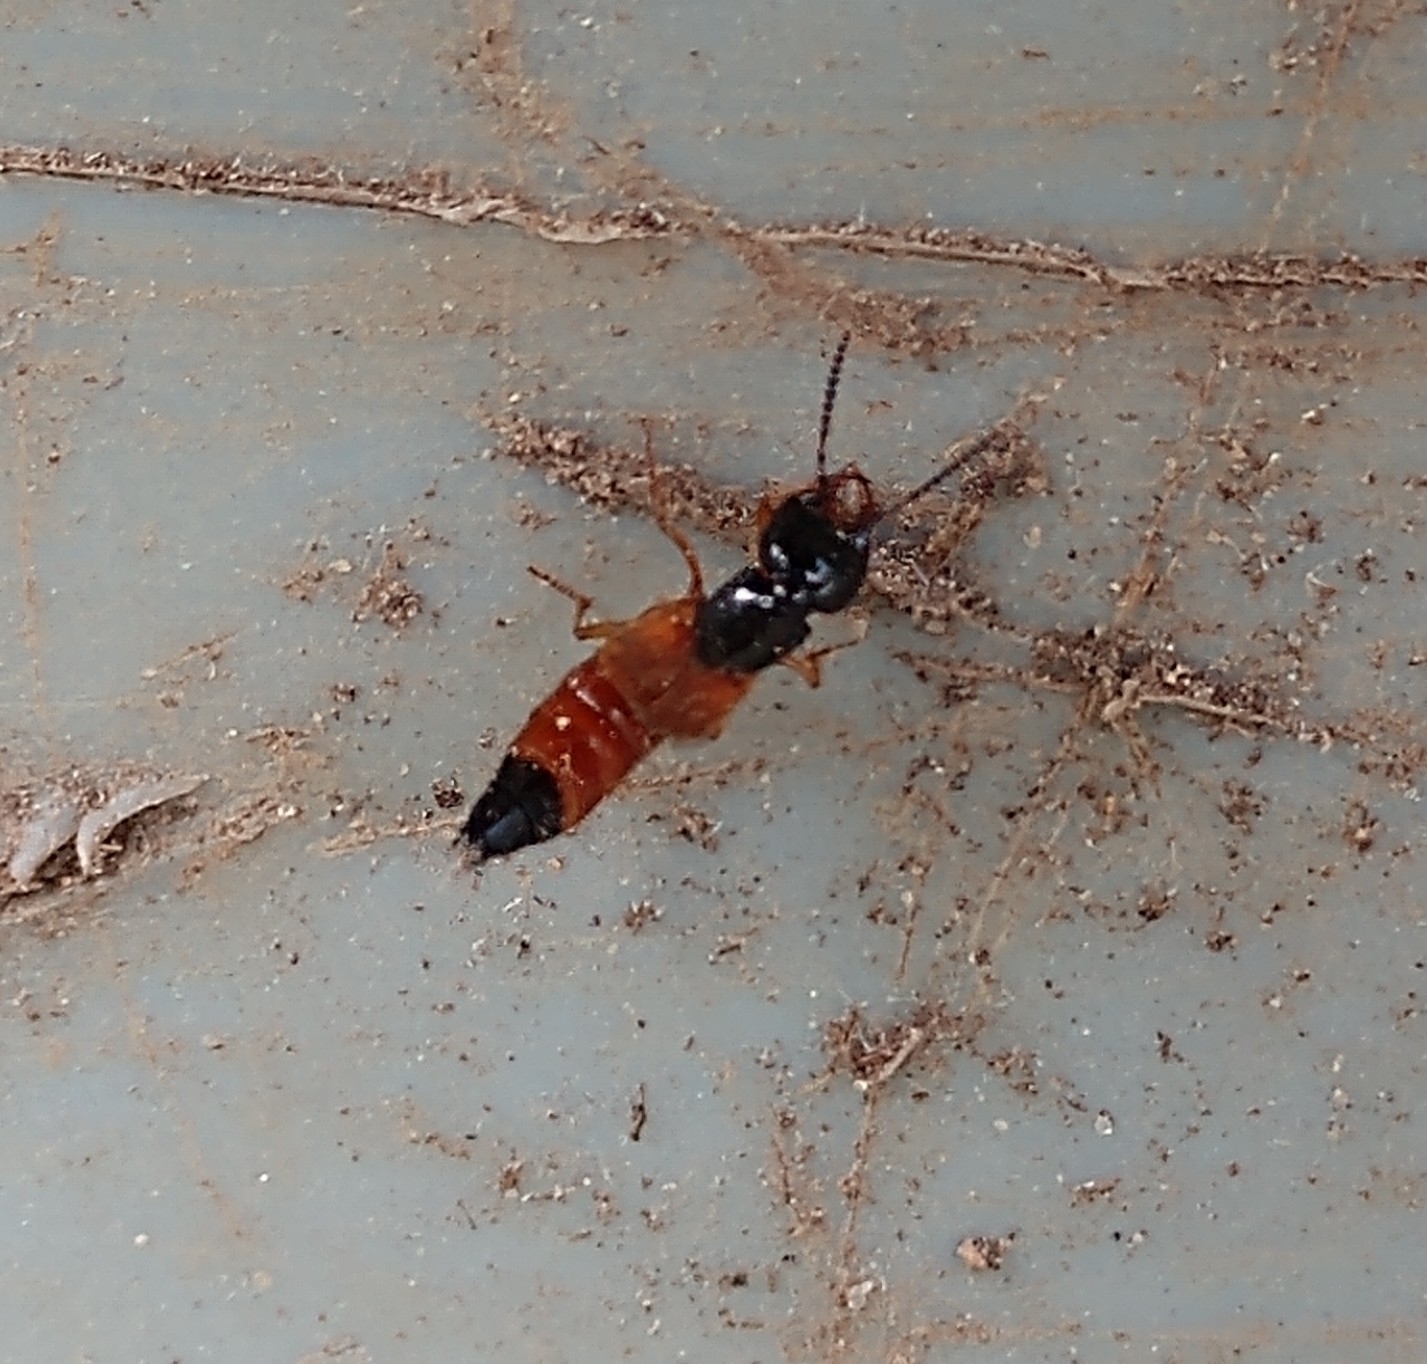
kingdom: Animalia
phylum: Arthropoda
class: Insecta
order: Coleoptera
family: Staphylinidae
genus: Belonuchus
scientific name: Belonuchus rufipennis
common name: Large rove beetle
